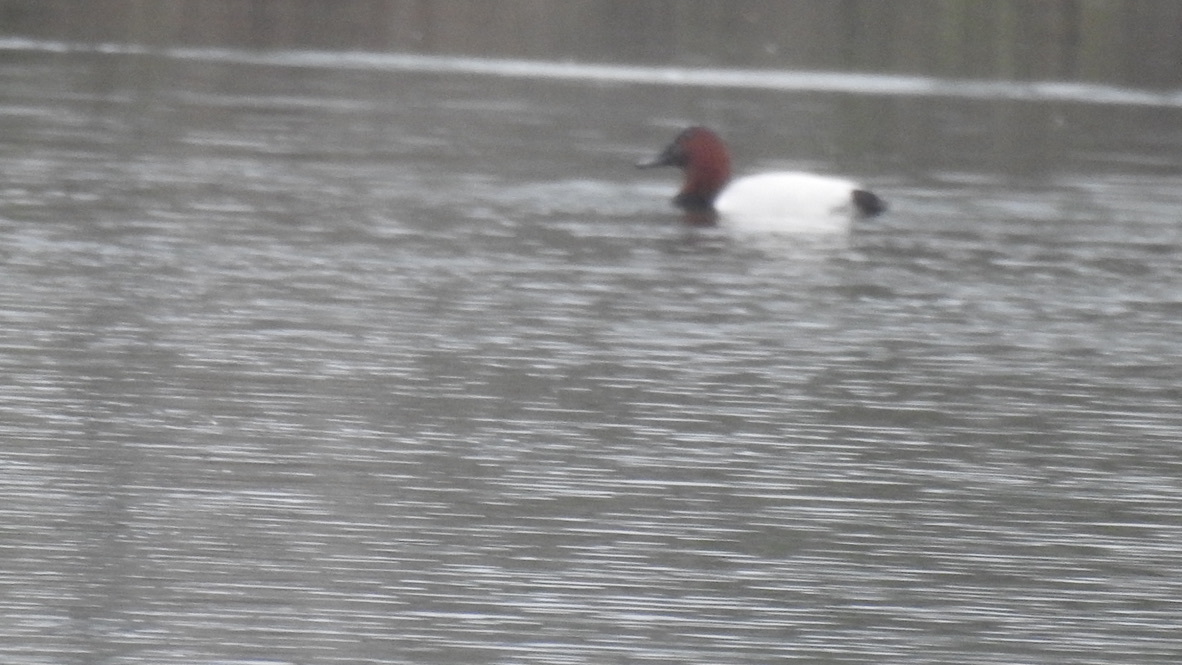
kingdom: Animalia
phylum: Chordata
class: Aves
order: Anseriformes
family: Anatidae
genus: Aythya
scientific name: Aythya valisineria
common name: Canvasback
